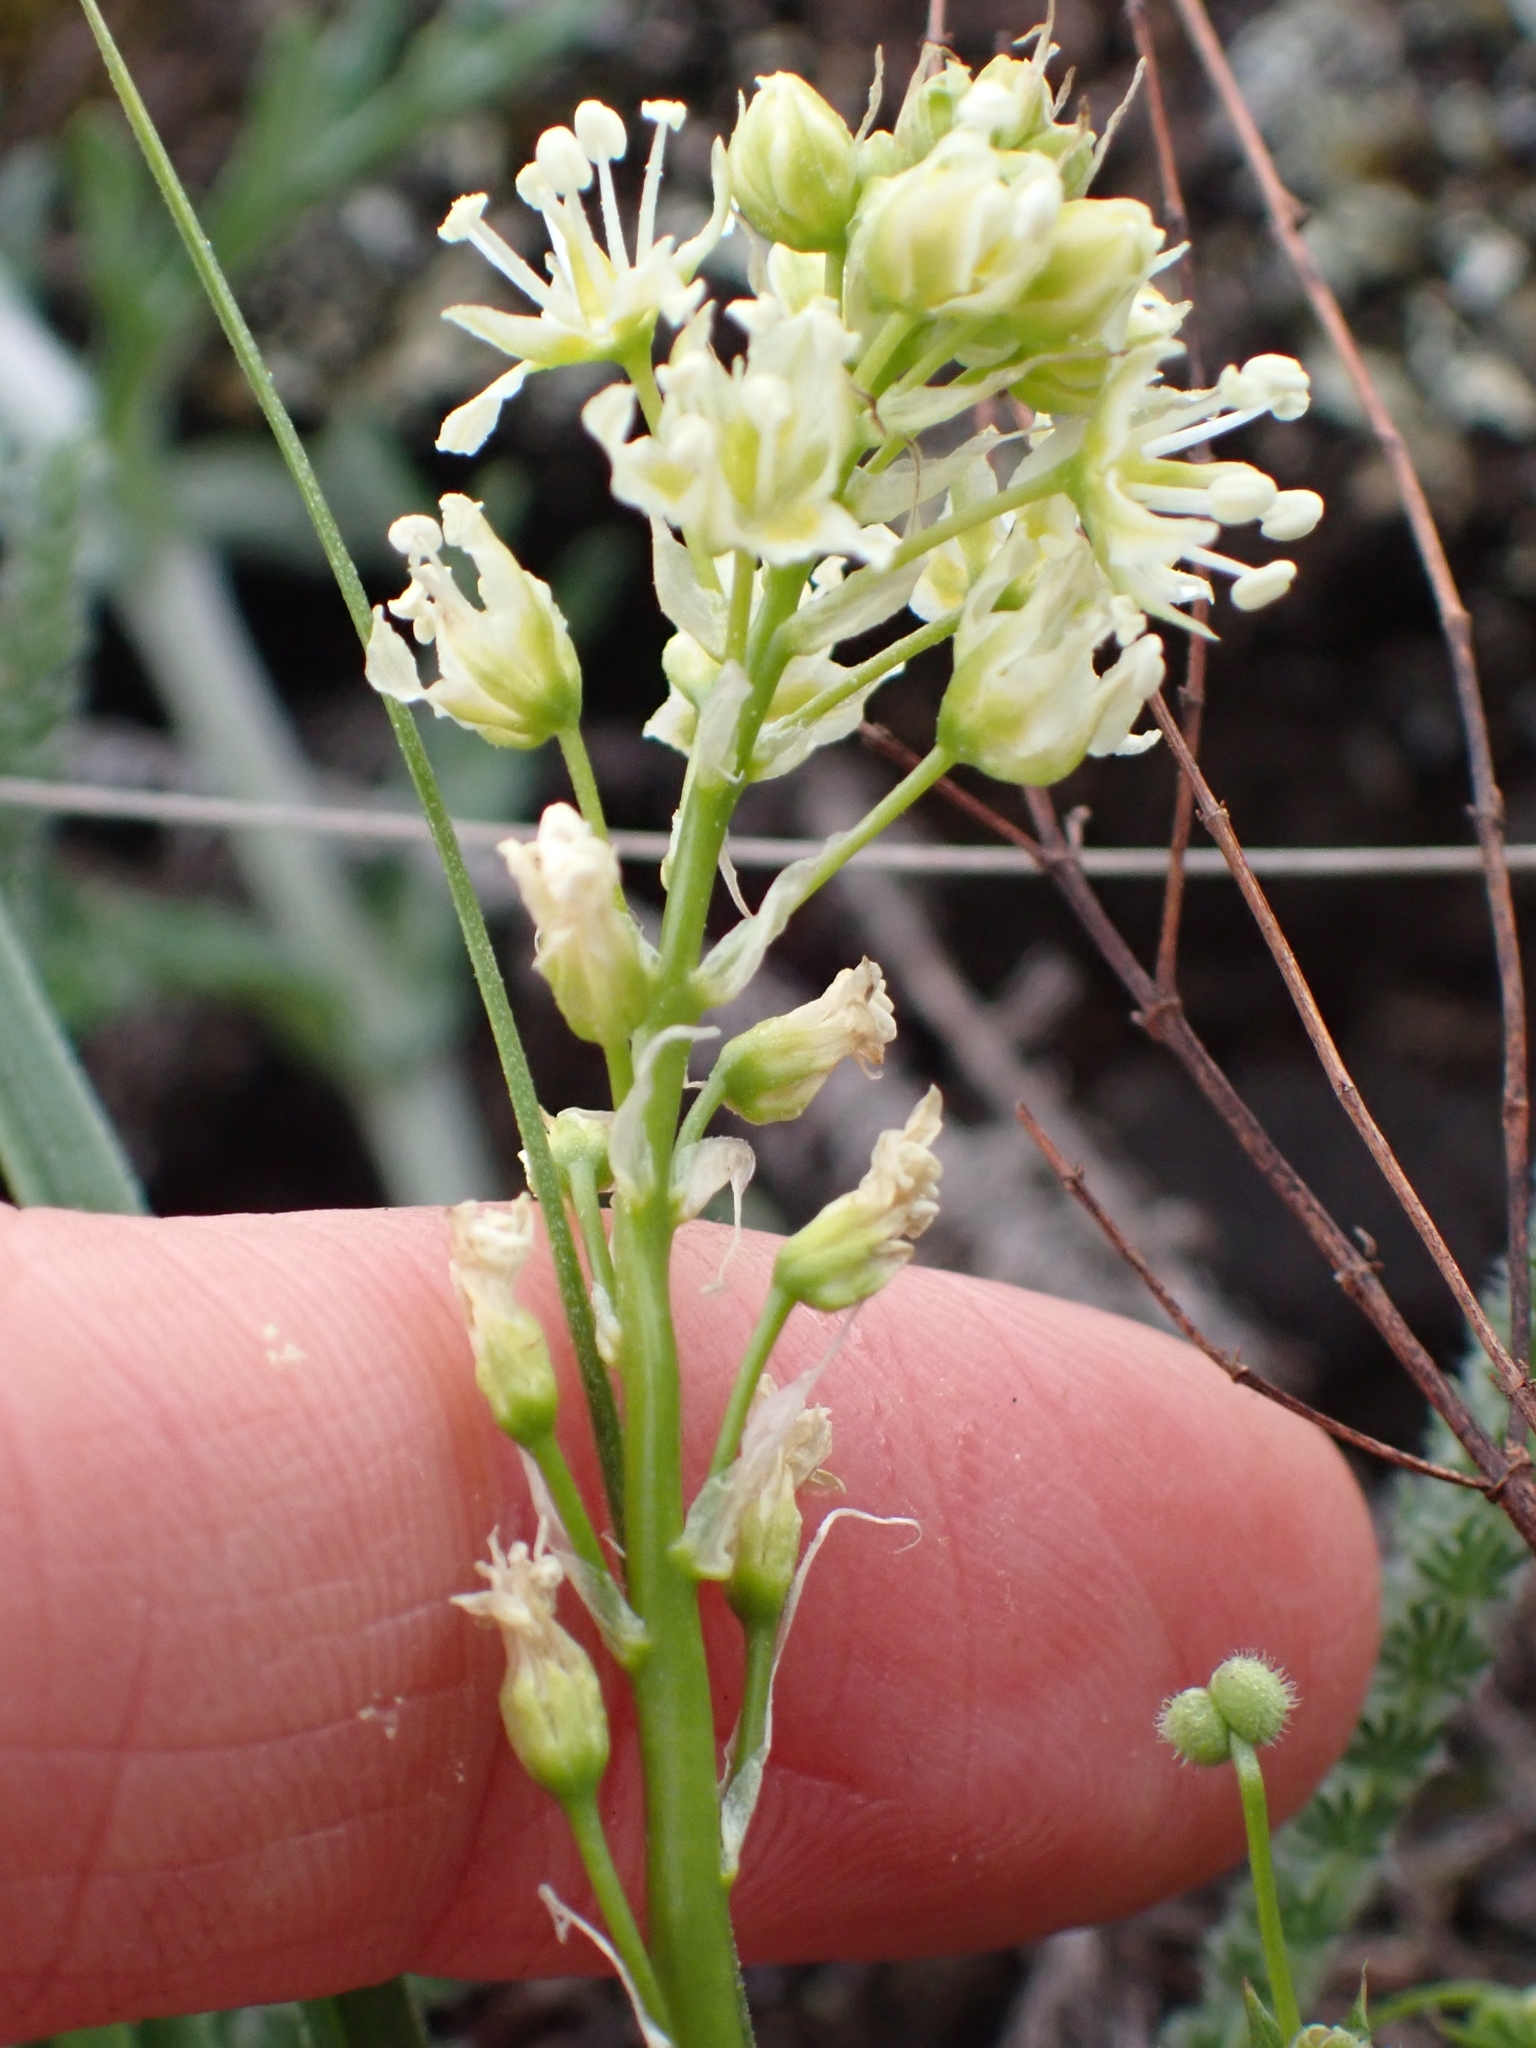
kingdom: Plantae
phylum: Tracheophyta
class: Liliopsida
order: Liliales
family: Melanthiaceae
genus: Toxicoscordion
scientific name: Toxicoscordion venenosum
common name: Meadow death camas
